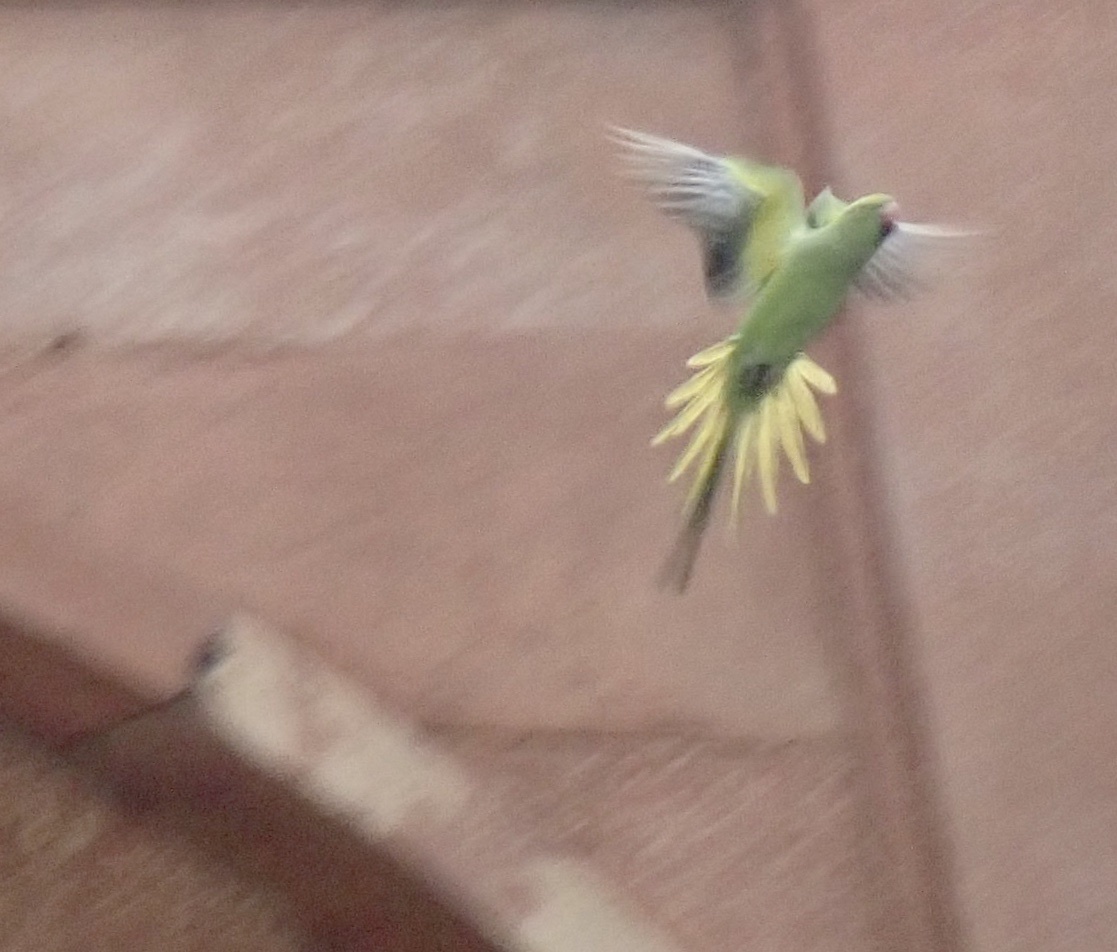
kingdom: Animalia
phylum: Chordata
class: Aves
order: Psittaciformes
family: Psittacidae
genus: Psittacula
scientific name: Psittacula krameri
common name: Rose-ringed parakeet
